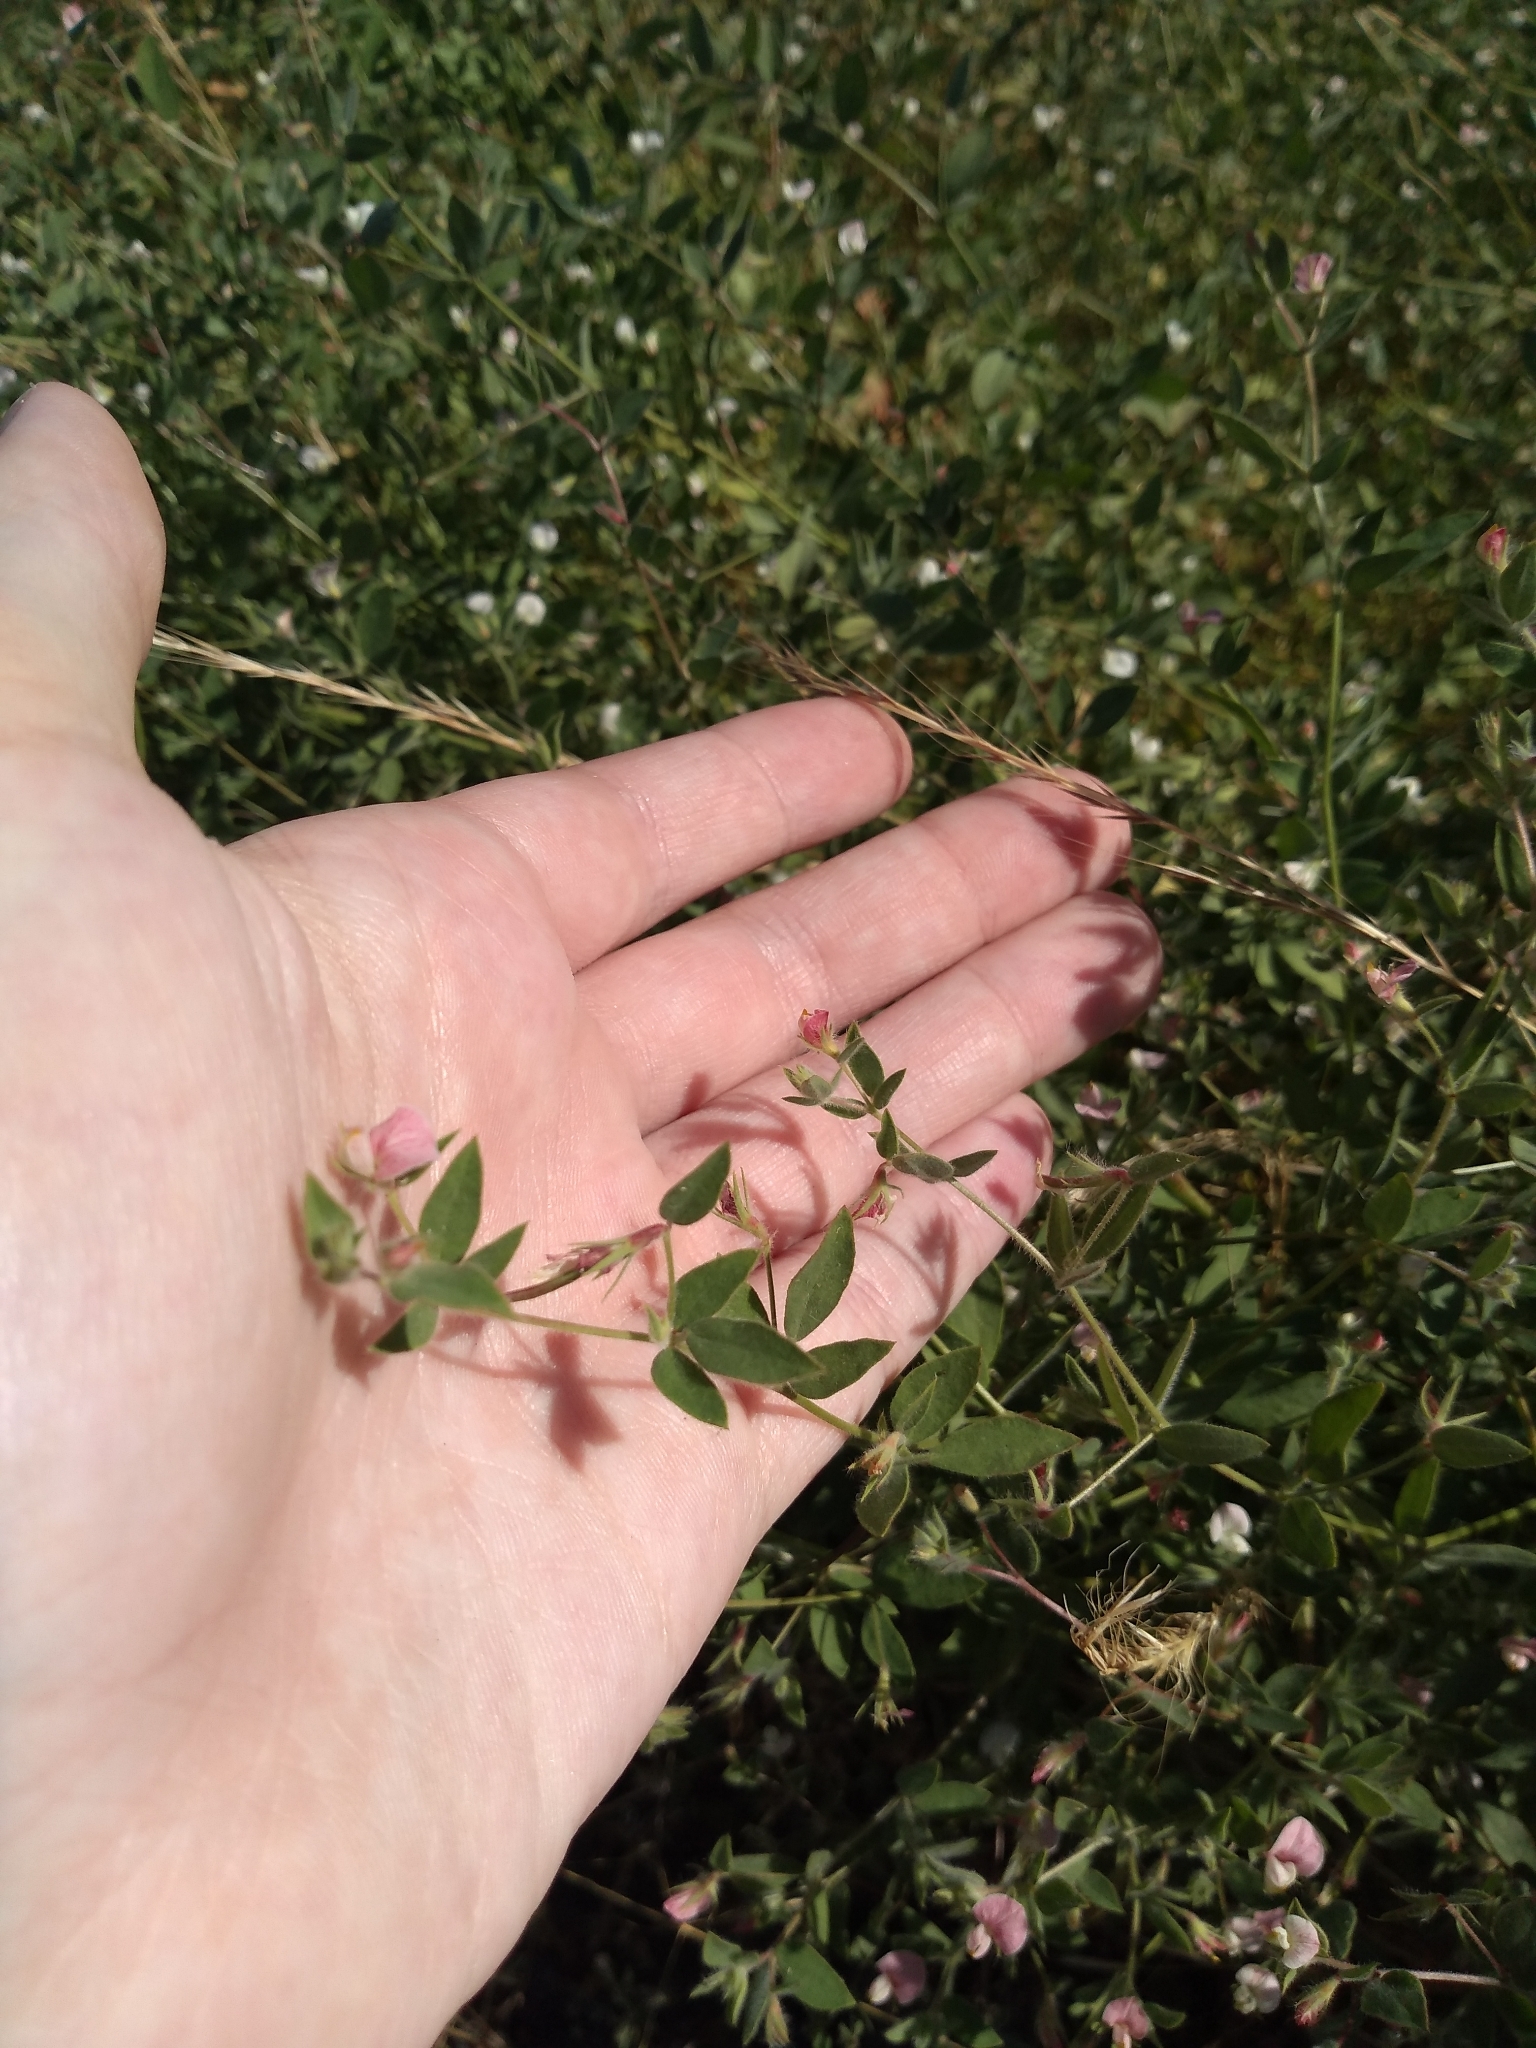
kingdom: Plantae
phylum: Tracheophyta
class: Magnoliopsida
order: Fabales
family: Fabaceae
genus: Acmispon
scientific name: Acmispon americanus
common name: American bird's-foot trefoil
